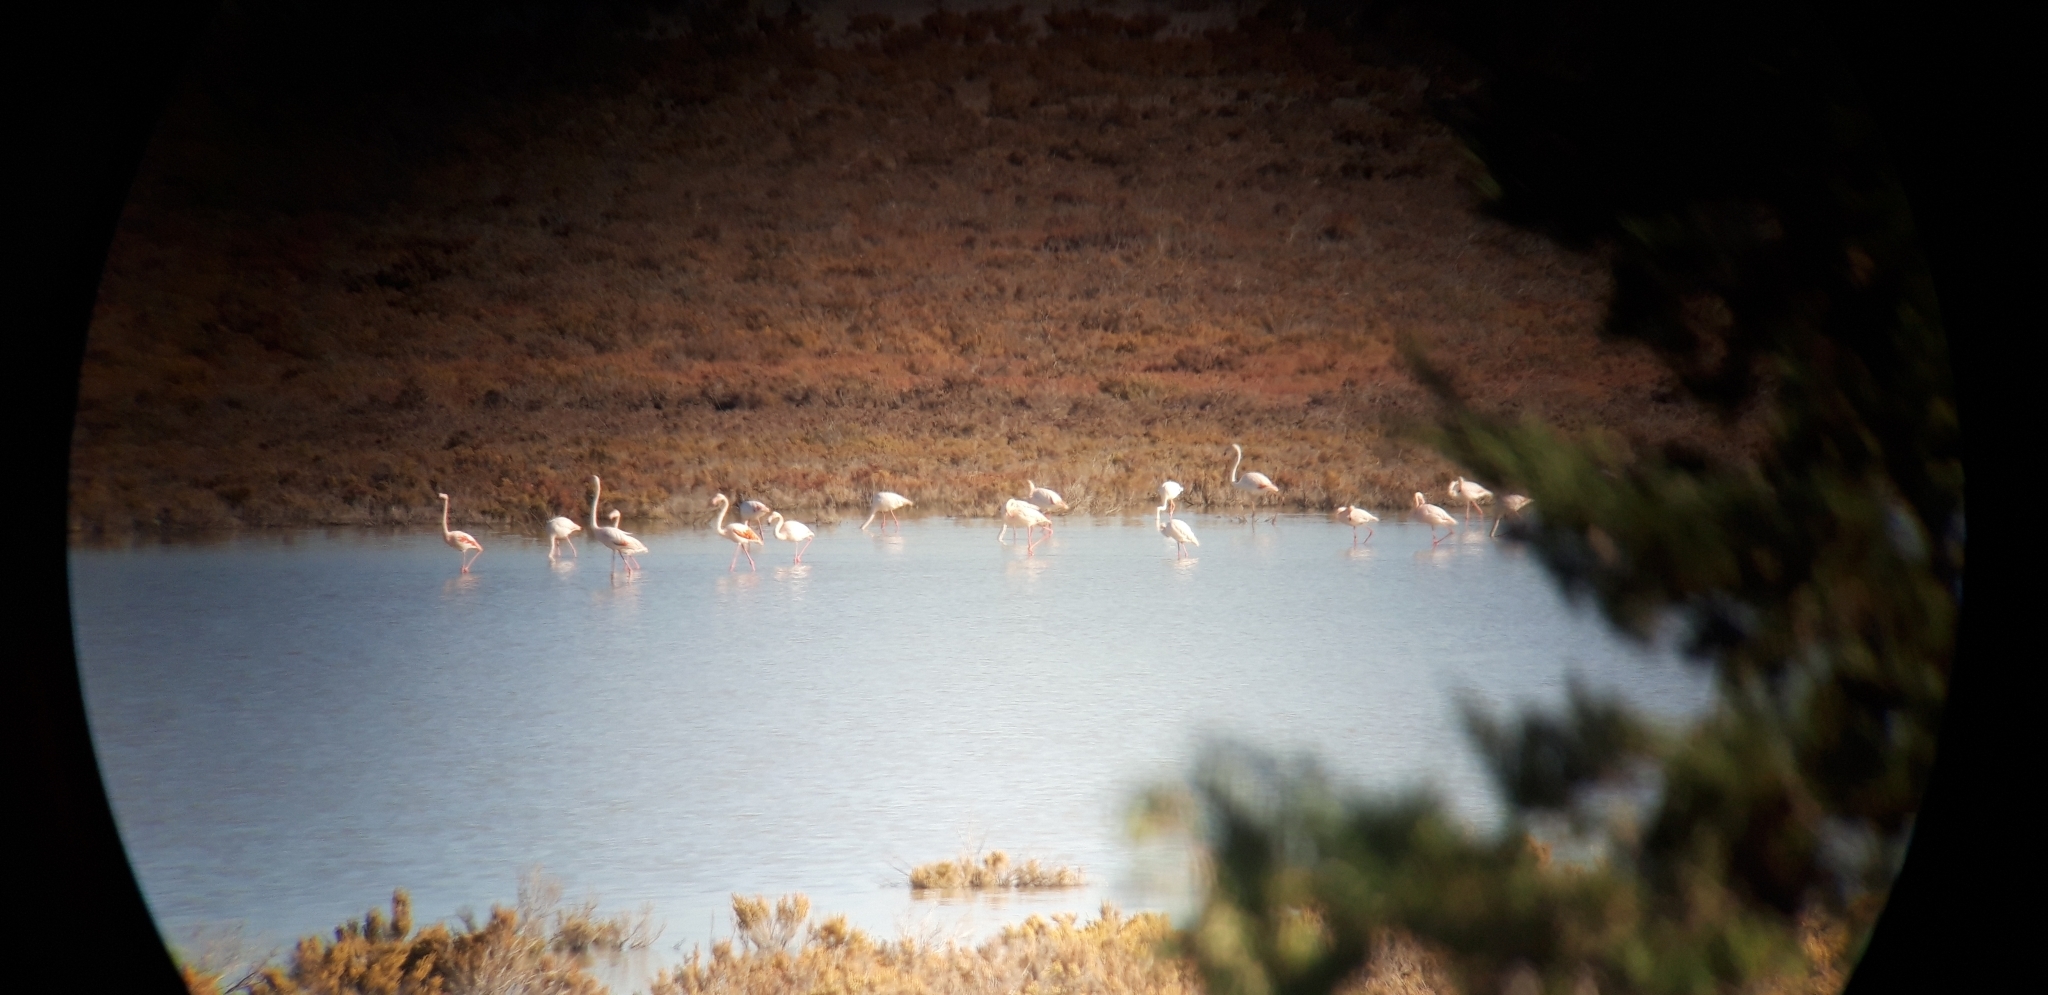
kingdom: Animalia
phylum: Chordata
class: Aves
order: Phoenicopteriformes
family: Phoenicopteridae
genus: Phoenicopterus
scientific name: Phoenicopterus roseus
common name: Greater flamingo
